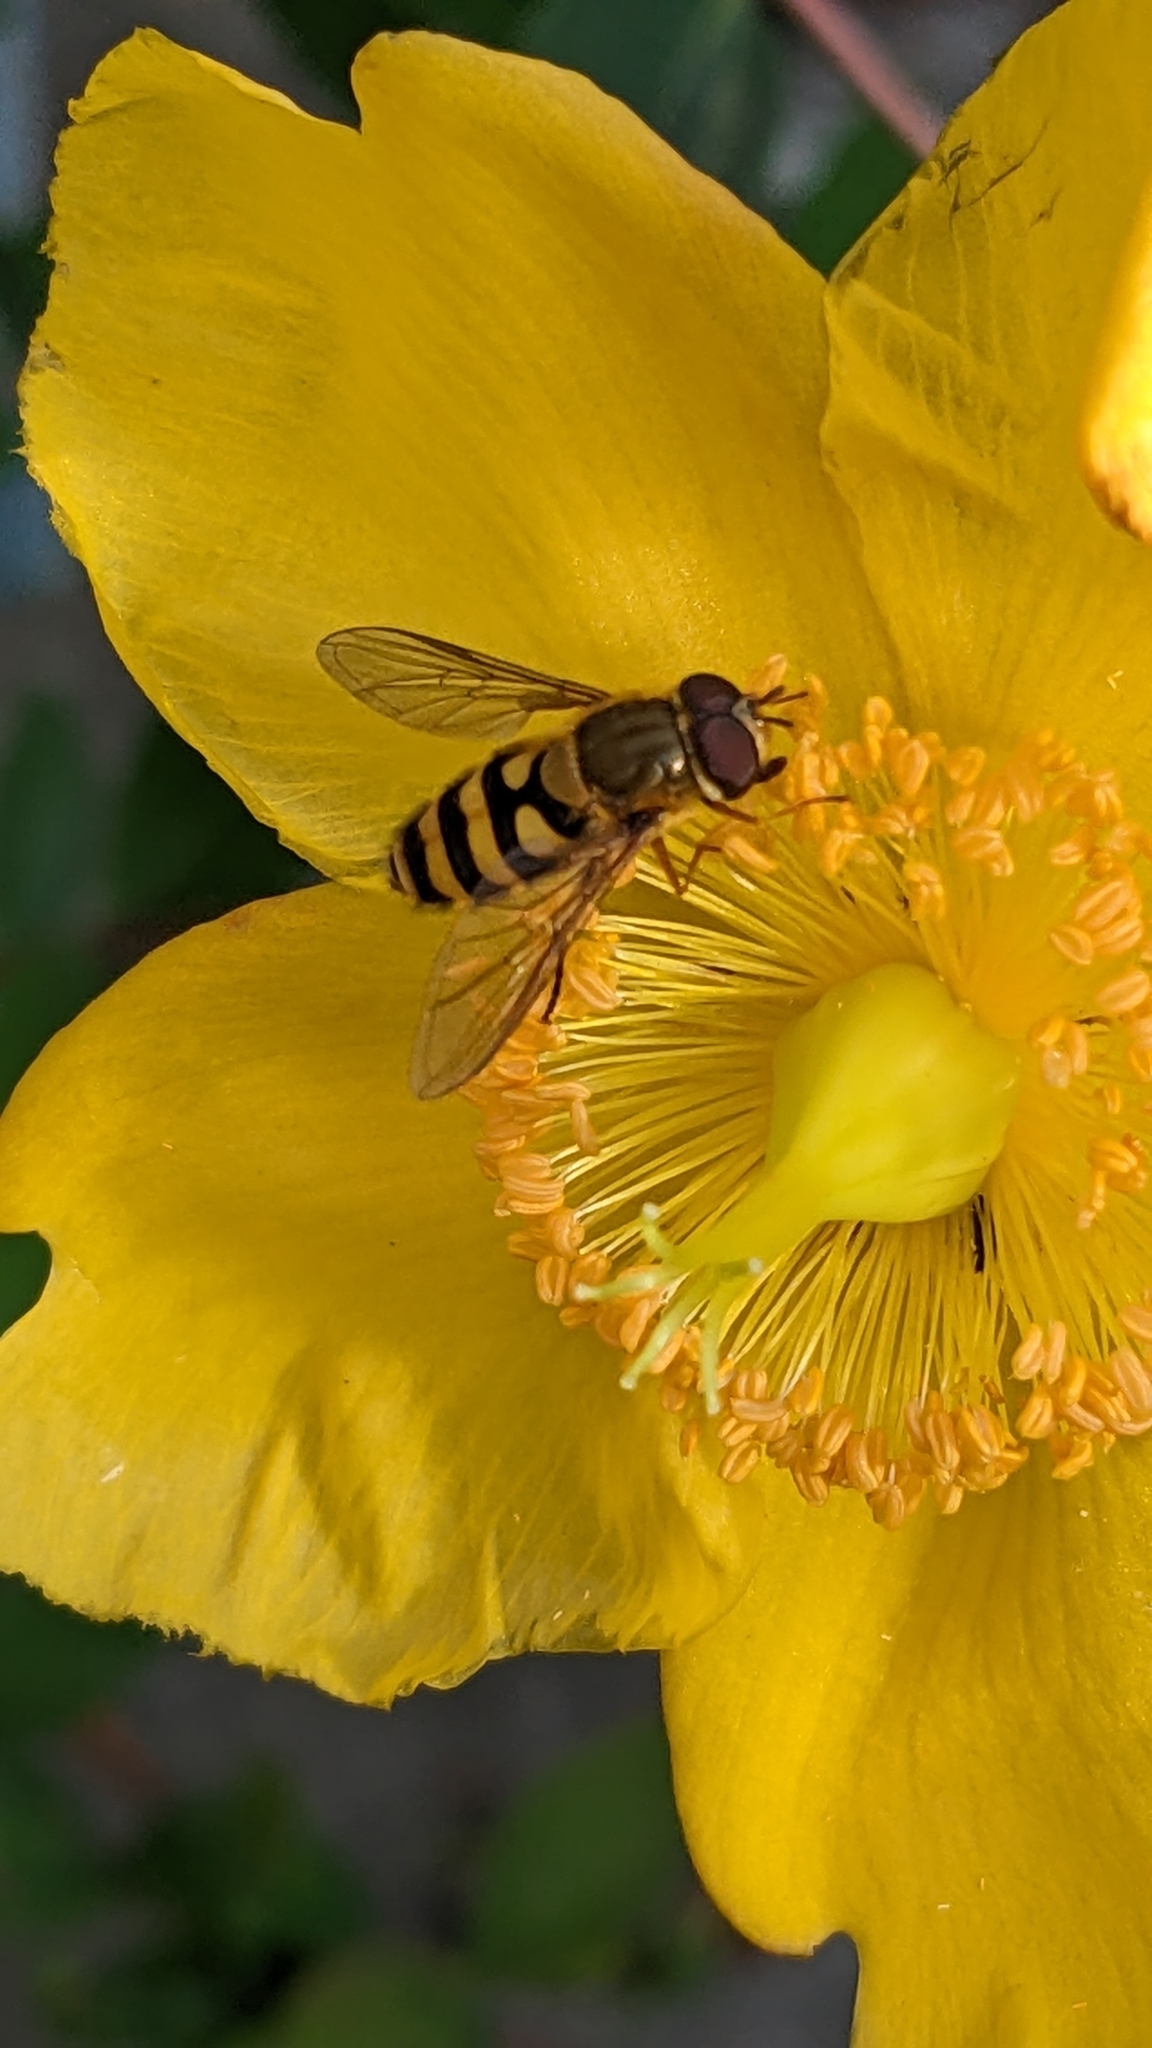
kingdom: Animalia
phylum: Arthropoda
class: Insecta
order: Diptera
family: Syrphidae
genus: Syrphus
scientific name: Syrphus
